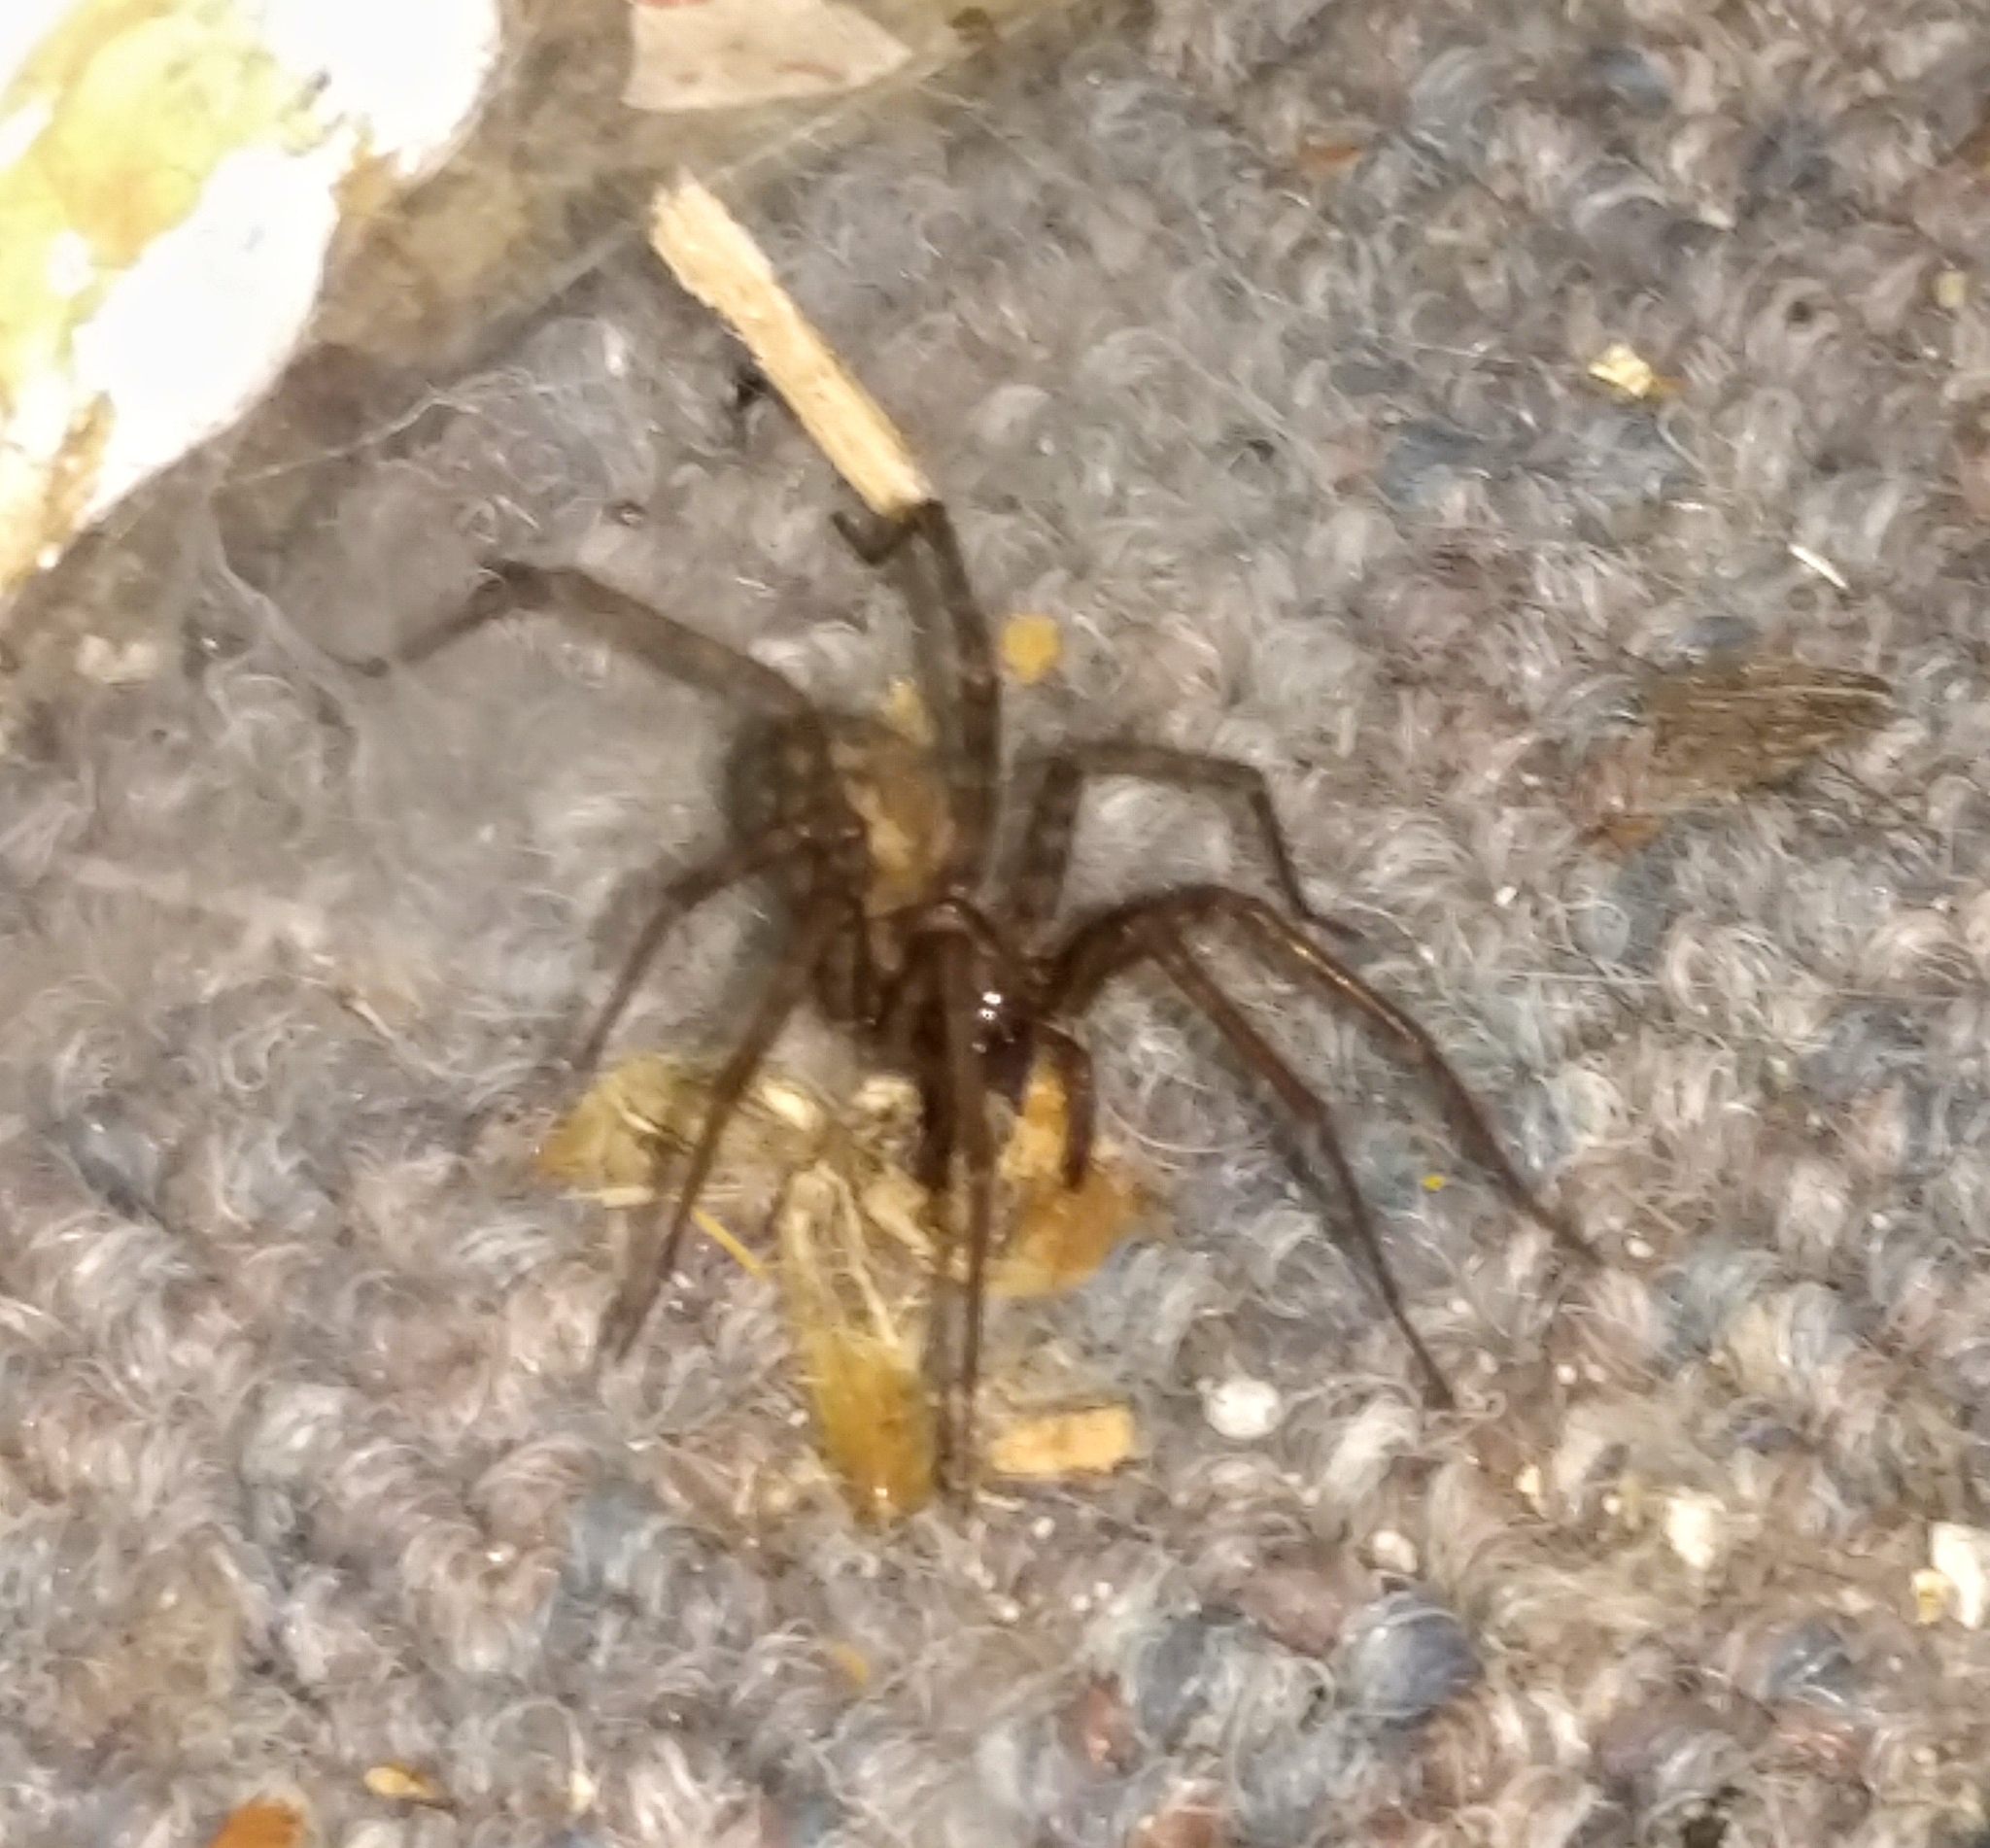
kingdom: Animalia
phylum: Arthropoda
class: Arachnida
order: Araneae
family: Agelenidae
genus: Tegenaria
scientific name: Tegenaria domestica
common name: Barn funnel weaver
